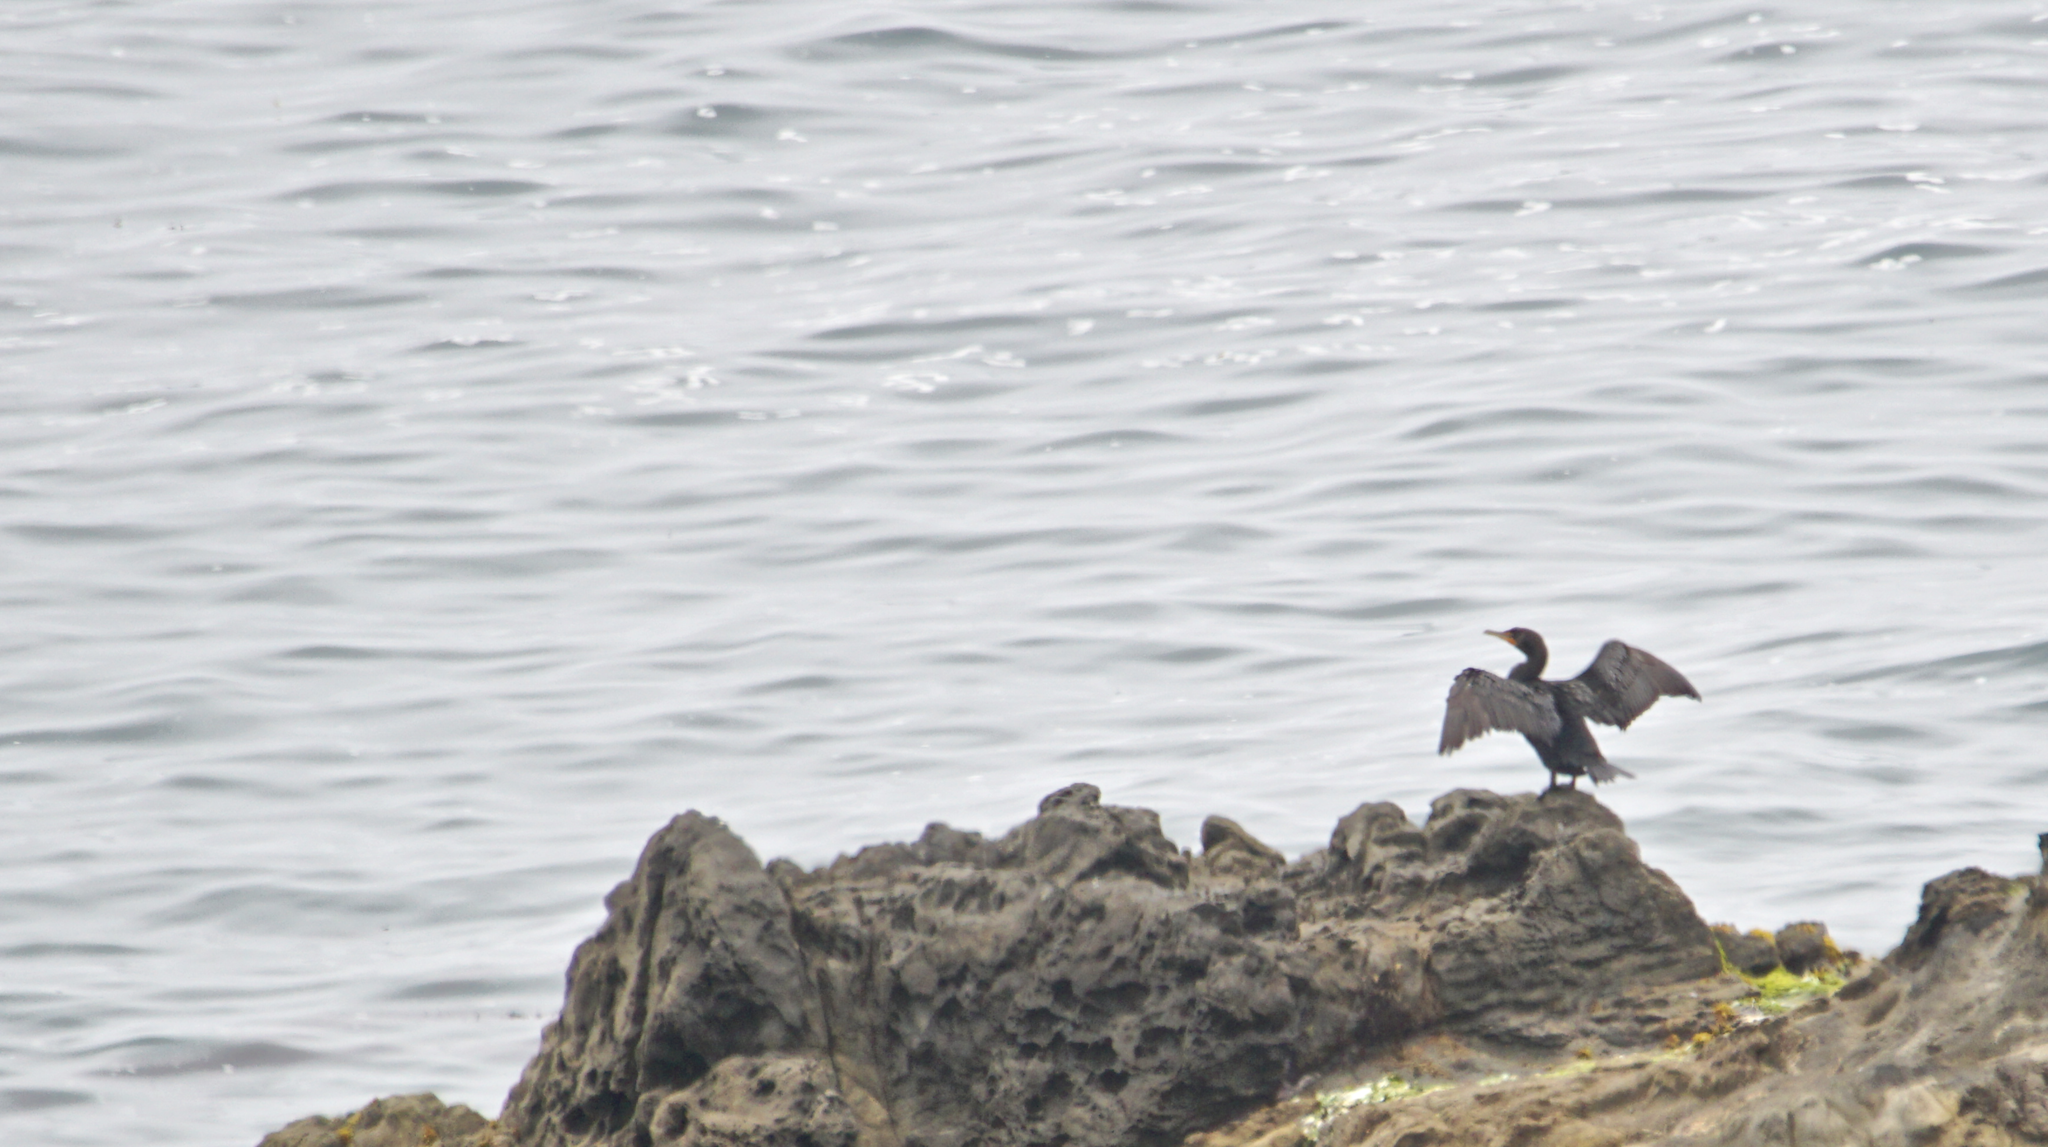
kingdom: Animalia
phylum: Chordata
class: Aves
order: Suliformes
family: Phalacrocoracidae
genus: Phalacrocorax
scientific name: Phalacrocorax auritus
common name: Double-crested cormorant
